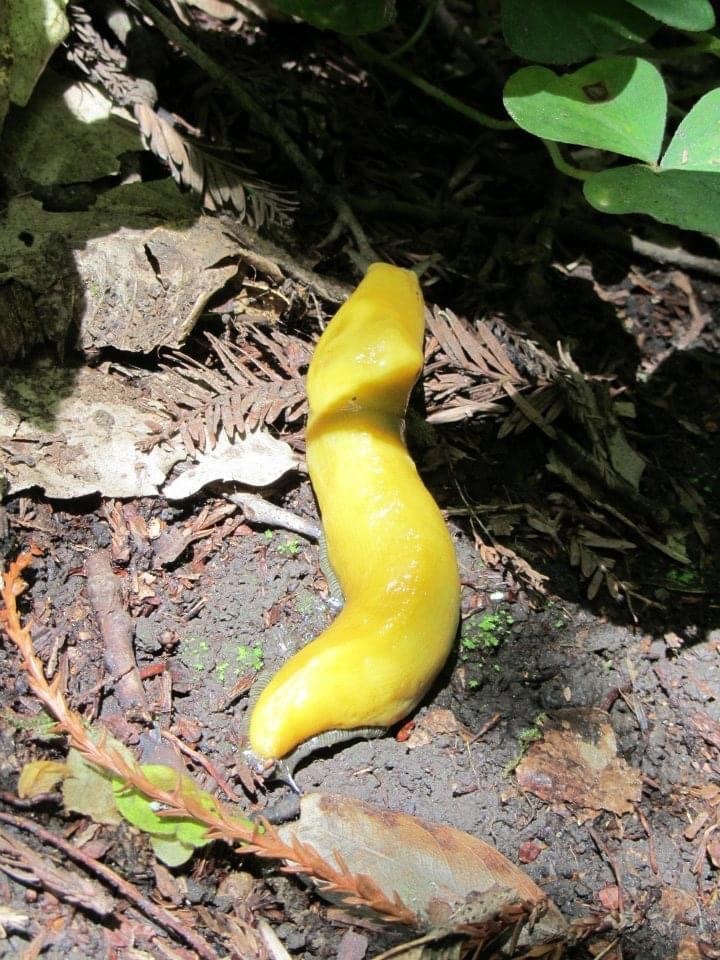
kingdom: Animalia
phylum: Mollusca
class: Gastropoda
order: Stylommatophora
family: Ariolimacidae
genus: Ariolimax
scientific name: Ariolimax dolichophallus
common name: Slender banana slug
